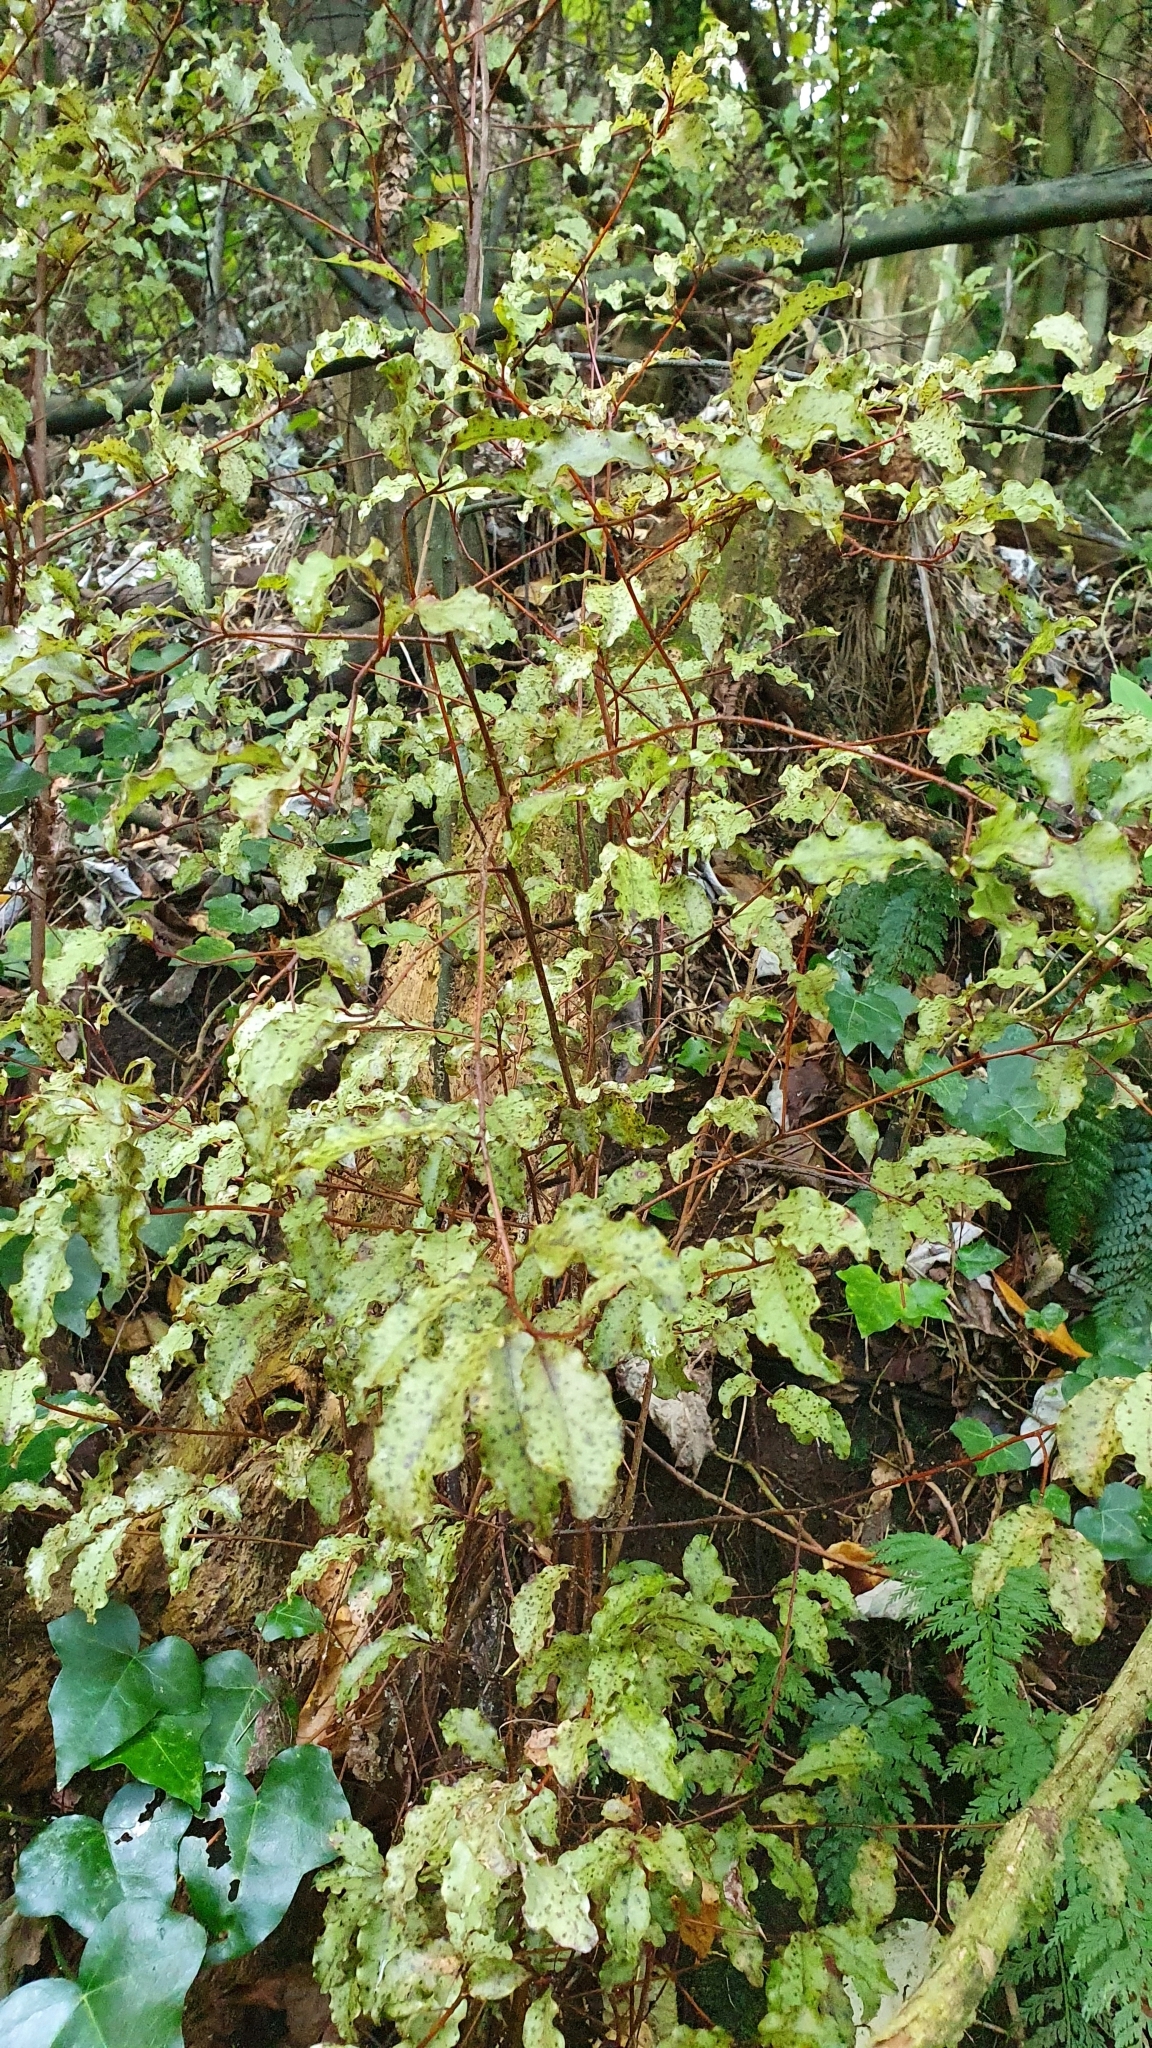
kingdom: Plantae
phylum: Tracheophyta
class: Magnoliopsida
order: Ericales
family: Primulaceae
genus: Myrsine
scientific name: Myrsine australis
